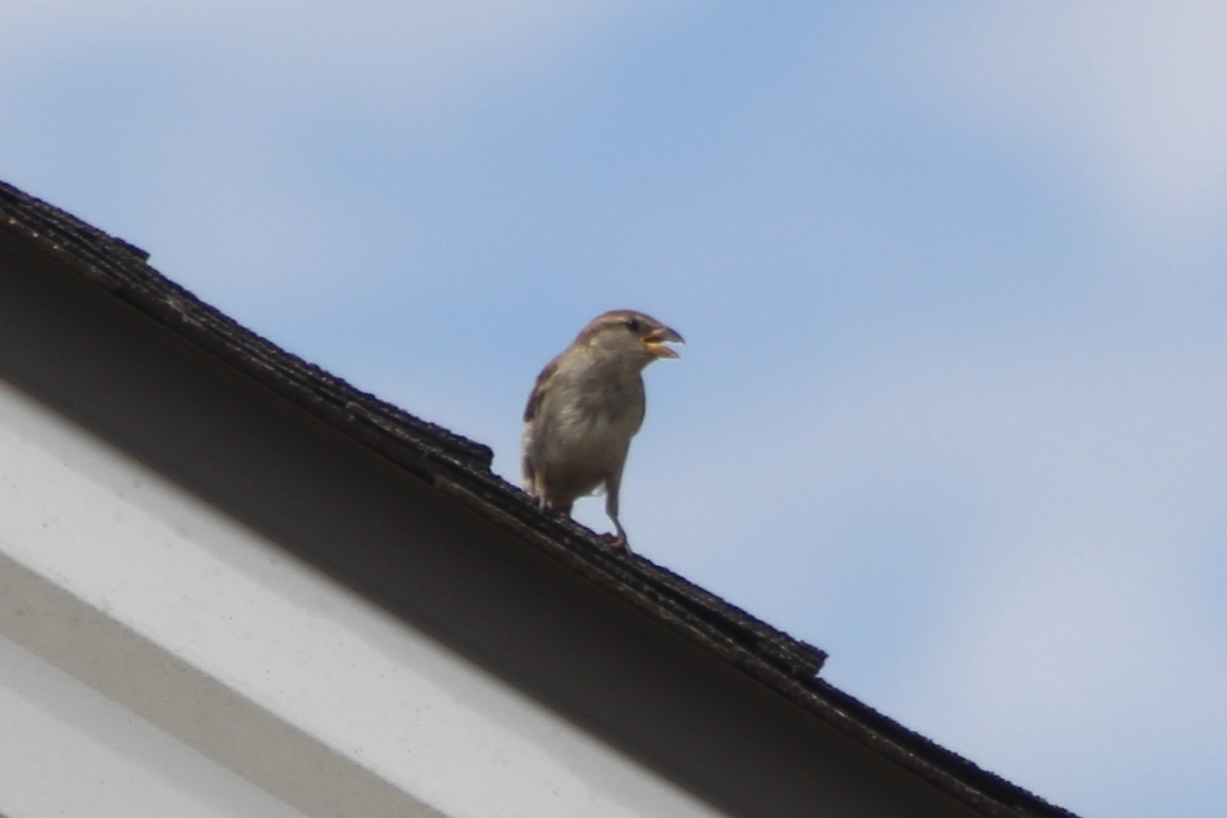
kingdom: Animalia
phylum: Chordata
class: Aves
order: Passeriformes
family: Passeridae
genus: Passer
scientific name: Passer domesticus
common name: House sparrow
